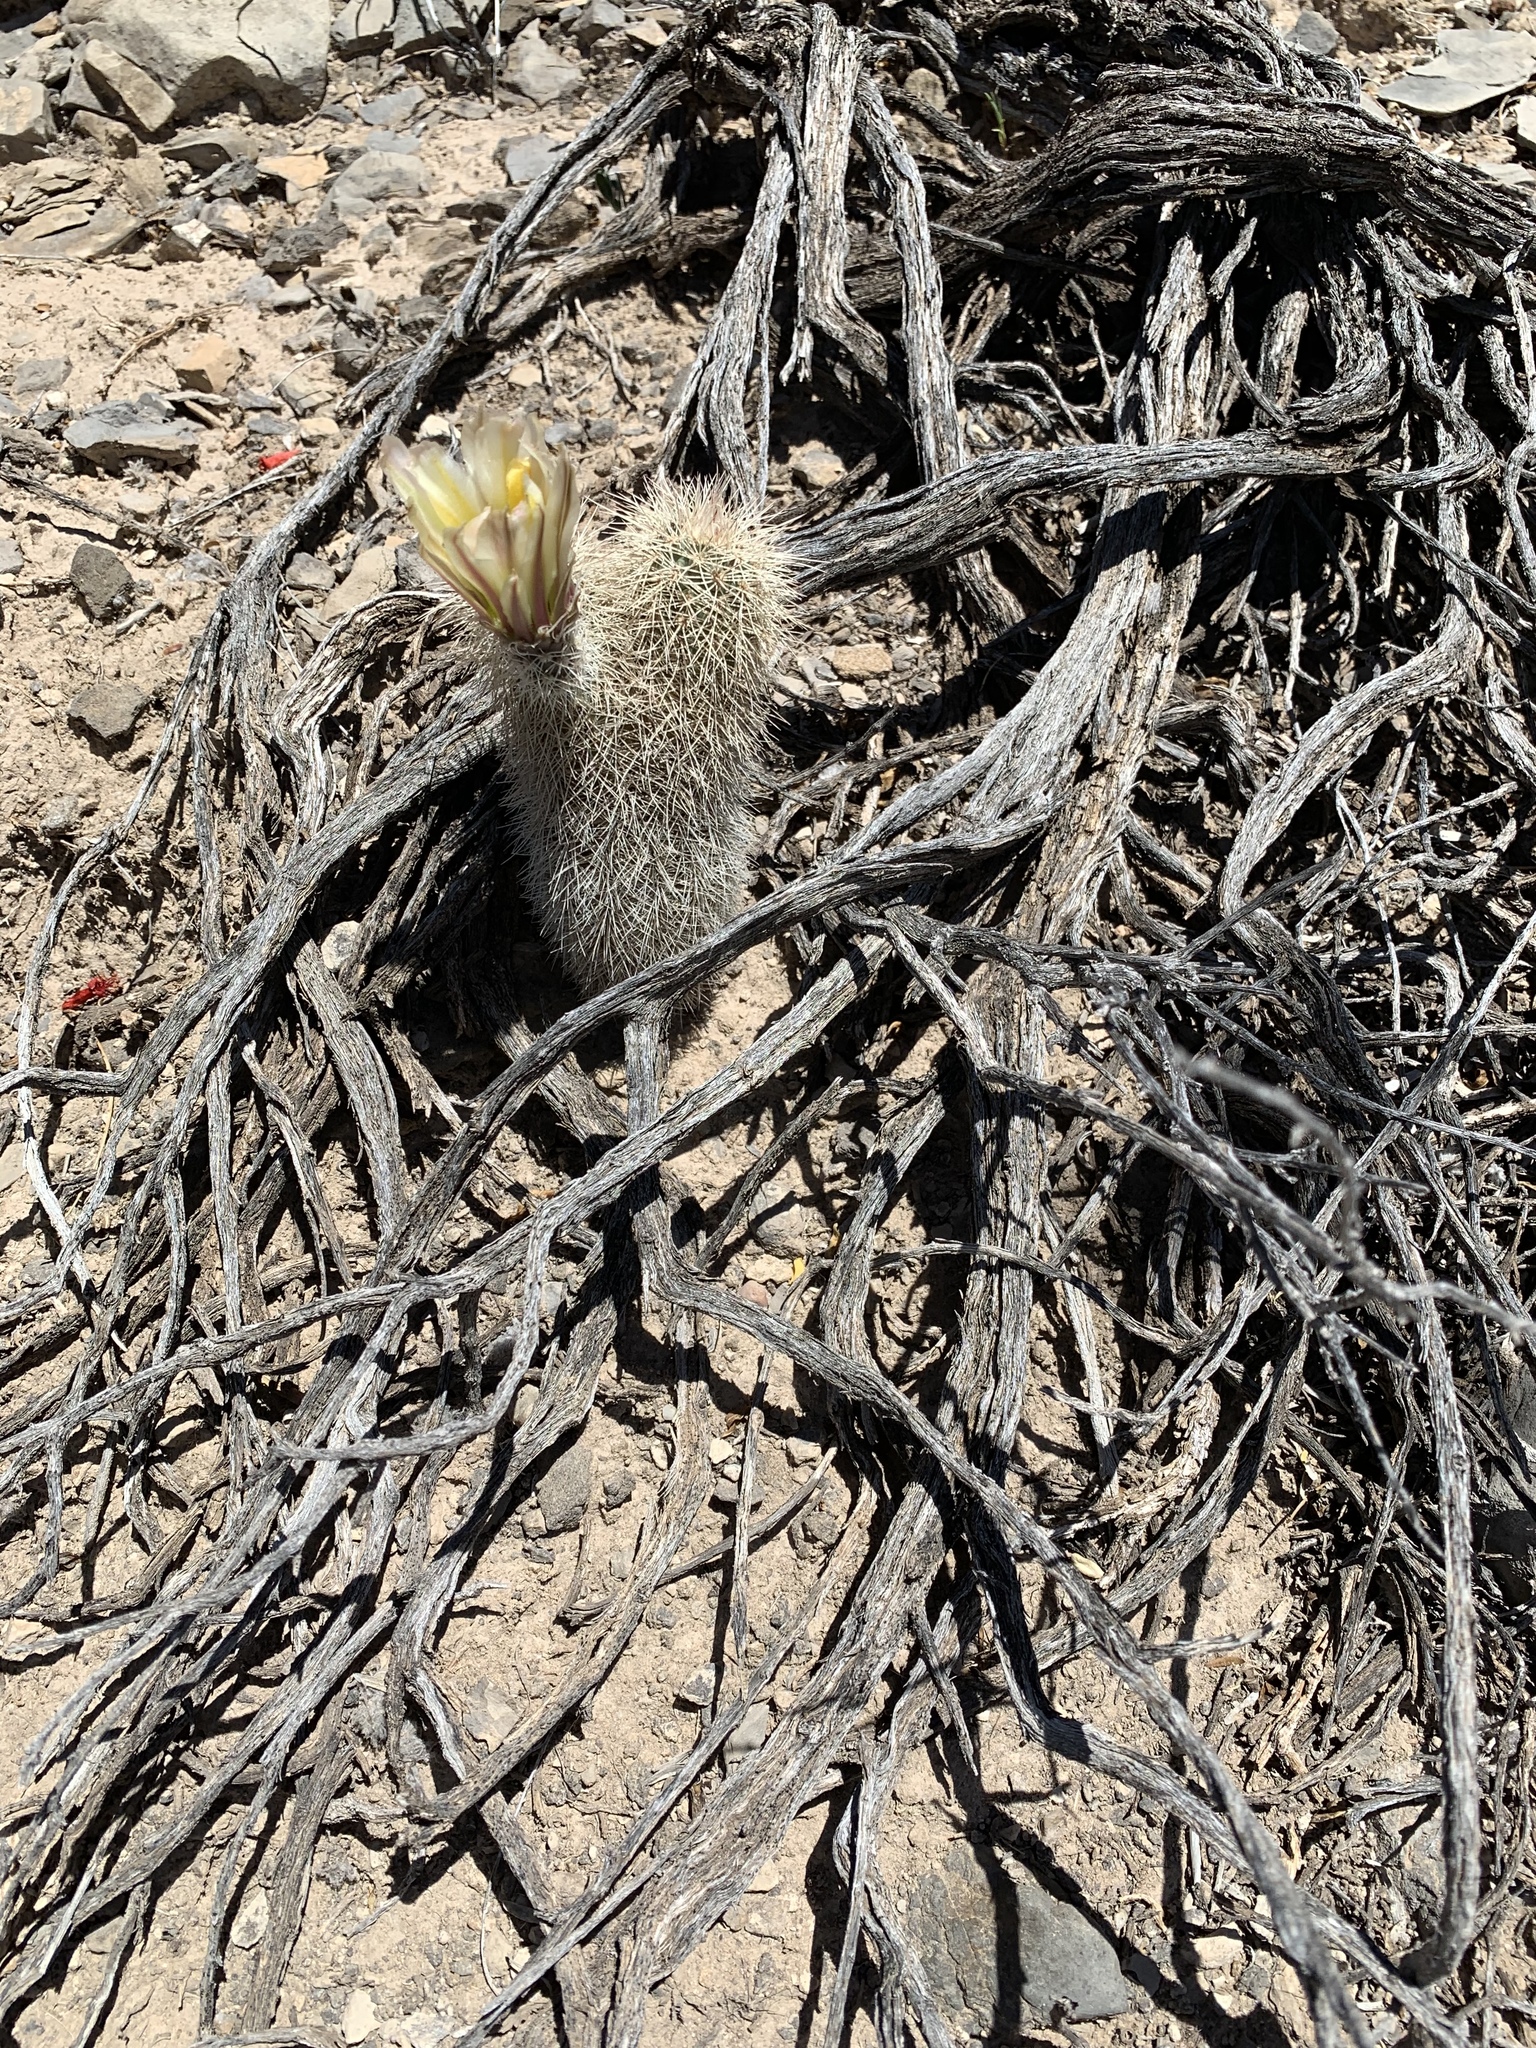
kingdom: Plantae
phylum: Tracheophyta
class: Magnoliopsida
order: Caryophyllales
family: Cactaceae
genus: Echinocereus
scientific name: Echinocereus dasyacanthus
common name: Spiny hedgehog cactus
